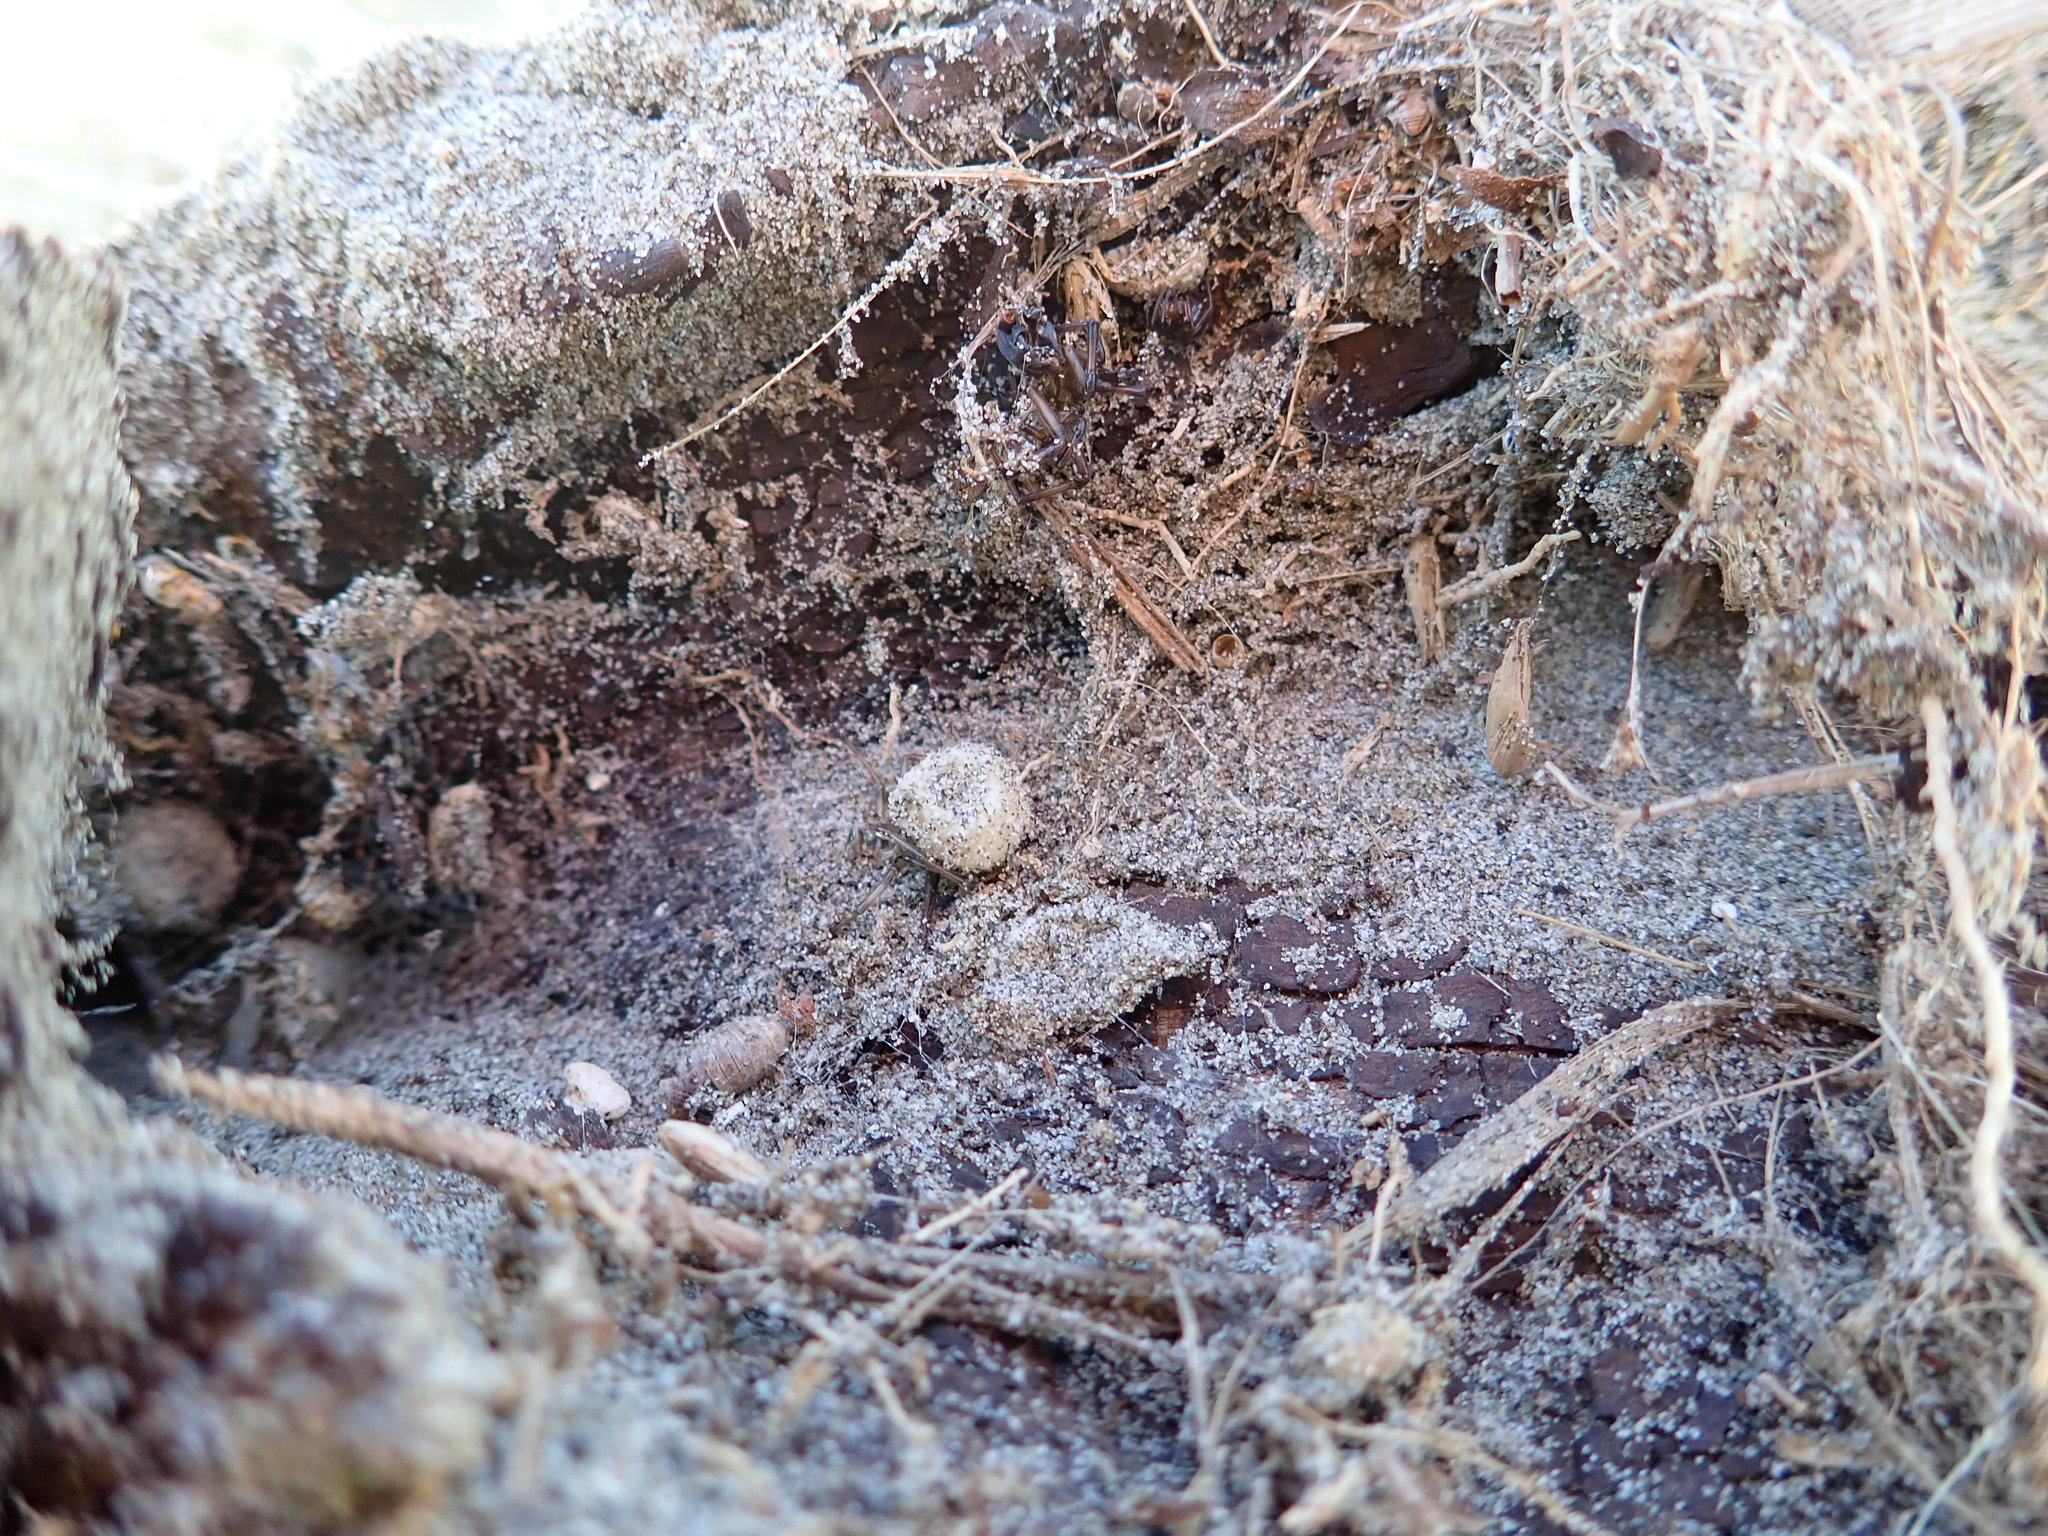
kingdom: Animalia
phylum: Arthropoda
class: Arachnida
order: Araneae
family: Theridiidae
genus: Latrodectus
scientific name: Latrodectus katipo
